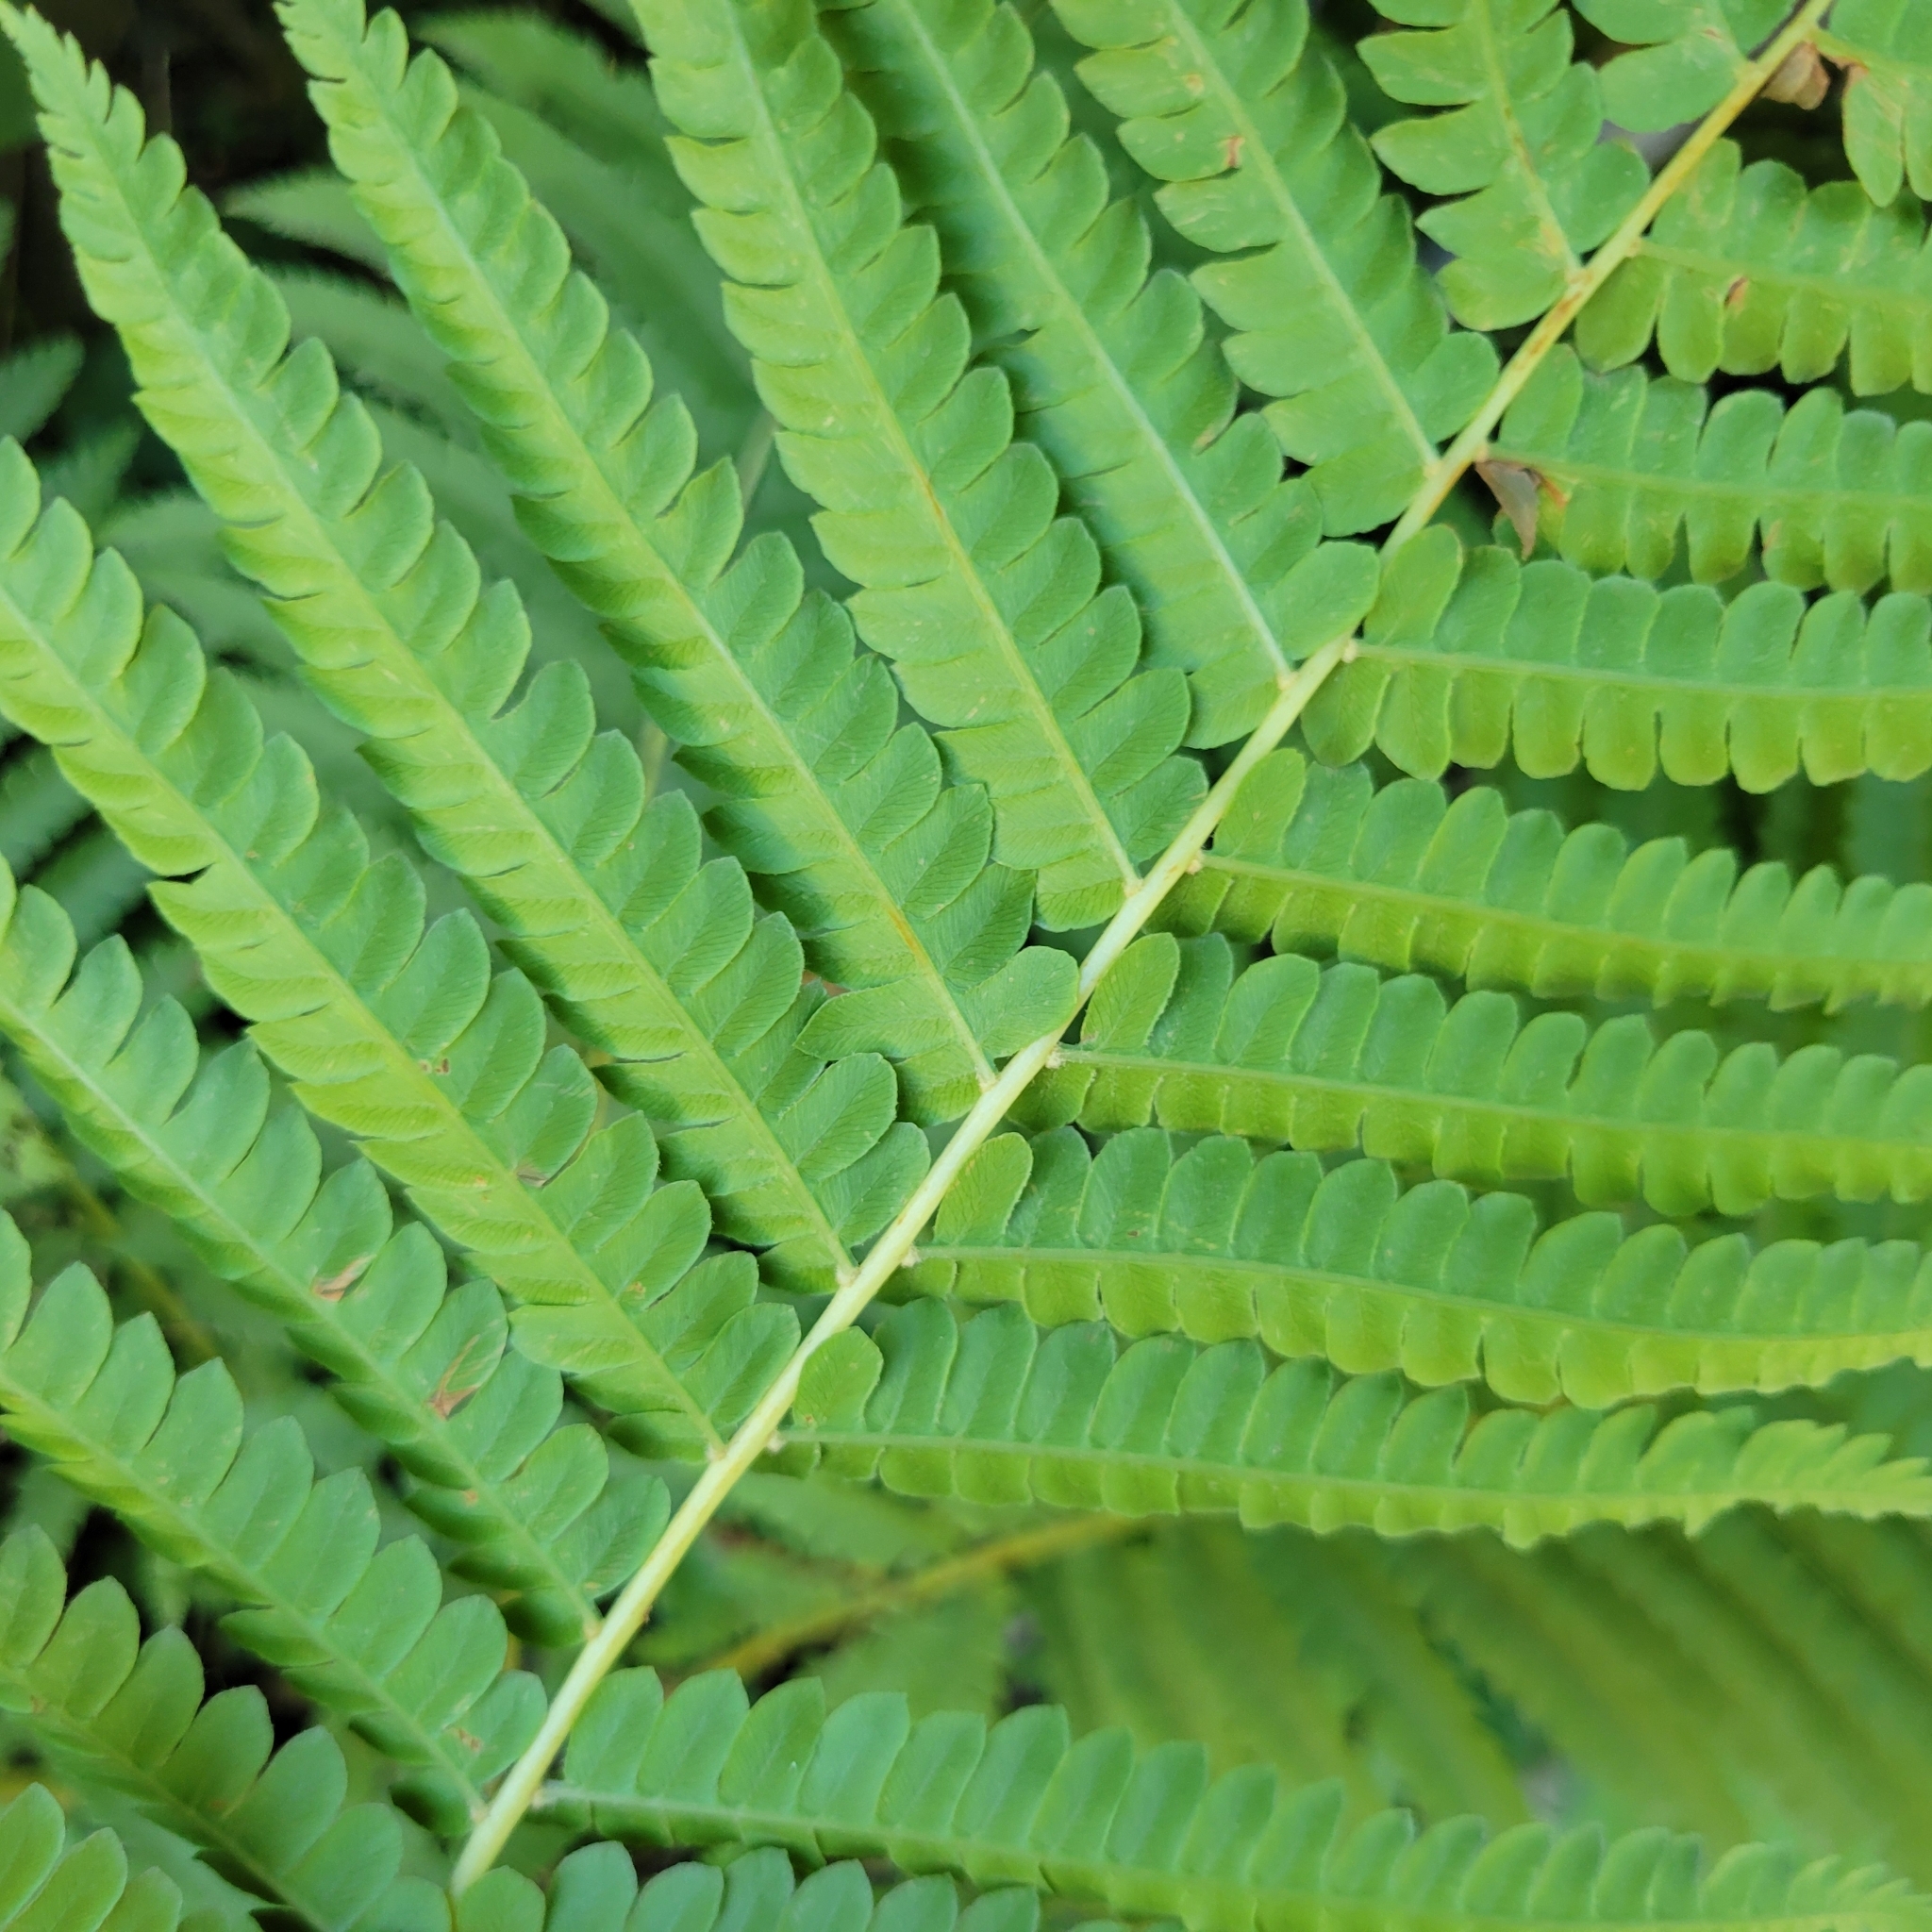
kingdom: Plantae
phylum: Tracheophyta
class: Polypodiopsida
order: Osmundales
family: Osmundaceae
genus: Osmundastrum
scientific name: Osmundastrum cinnamomeum
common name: Cinnamon fern
